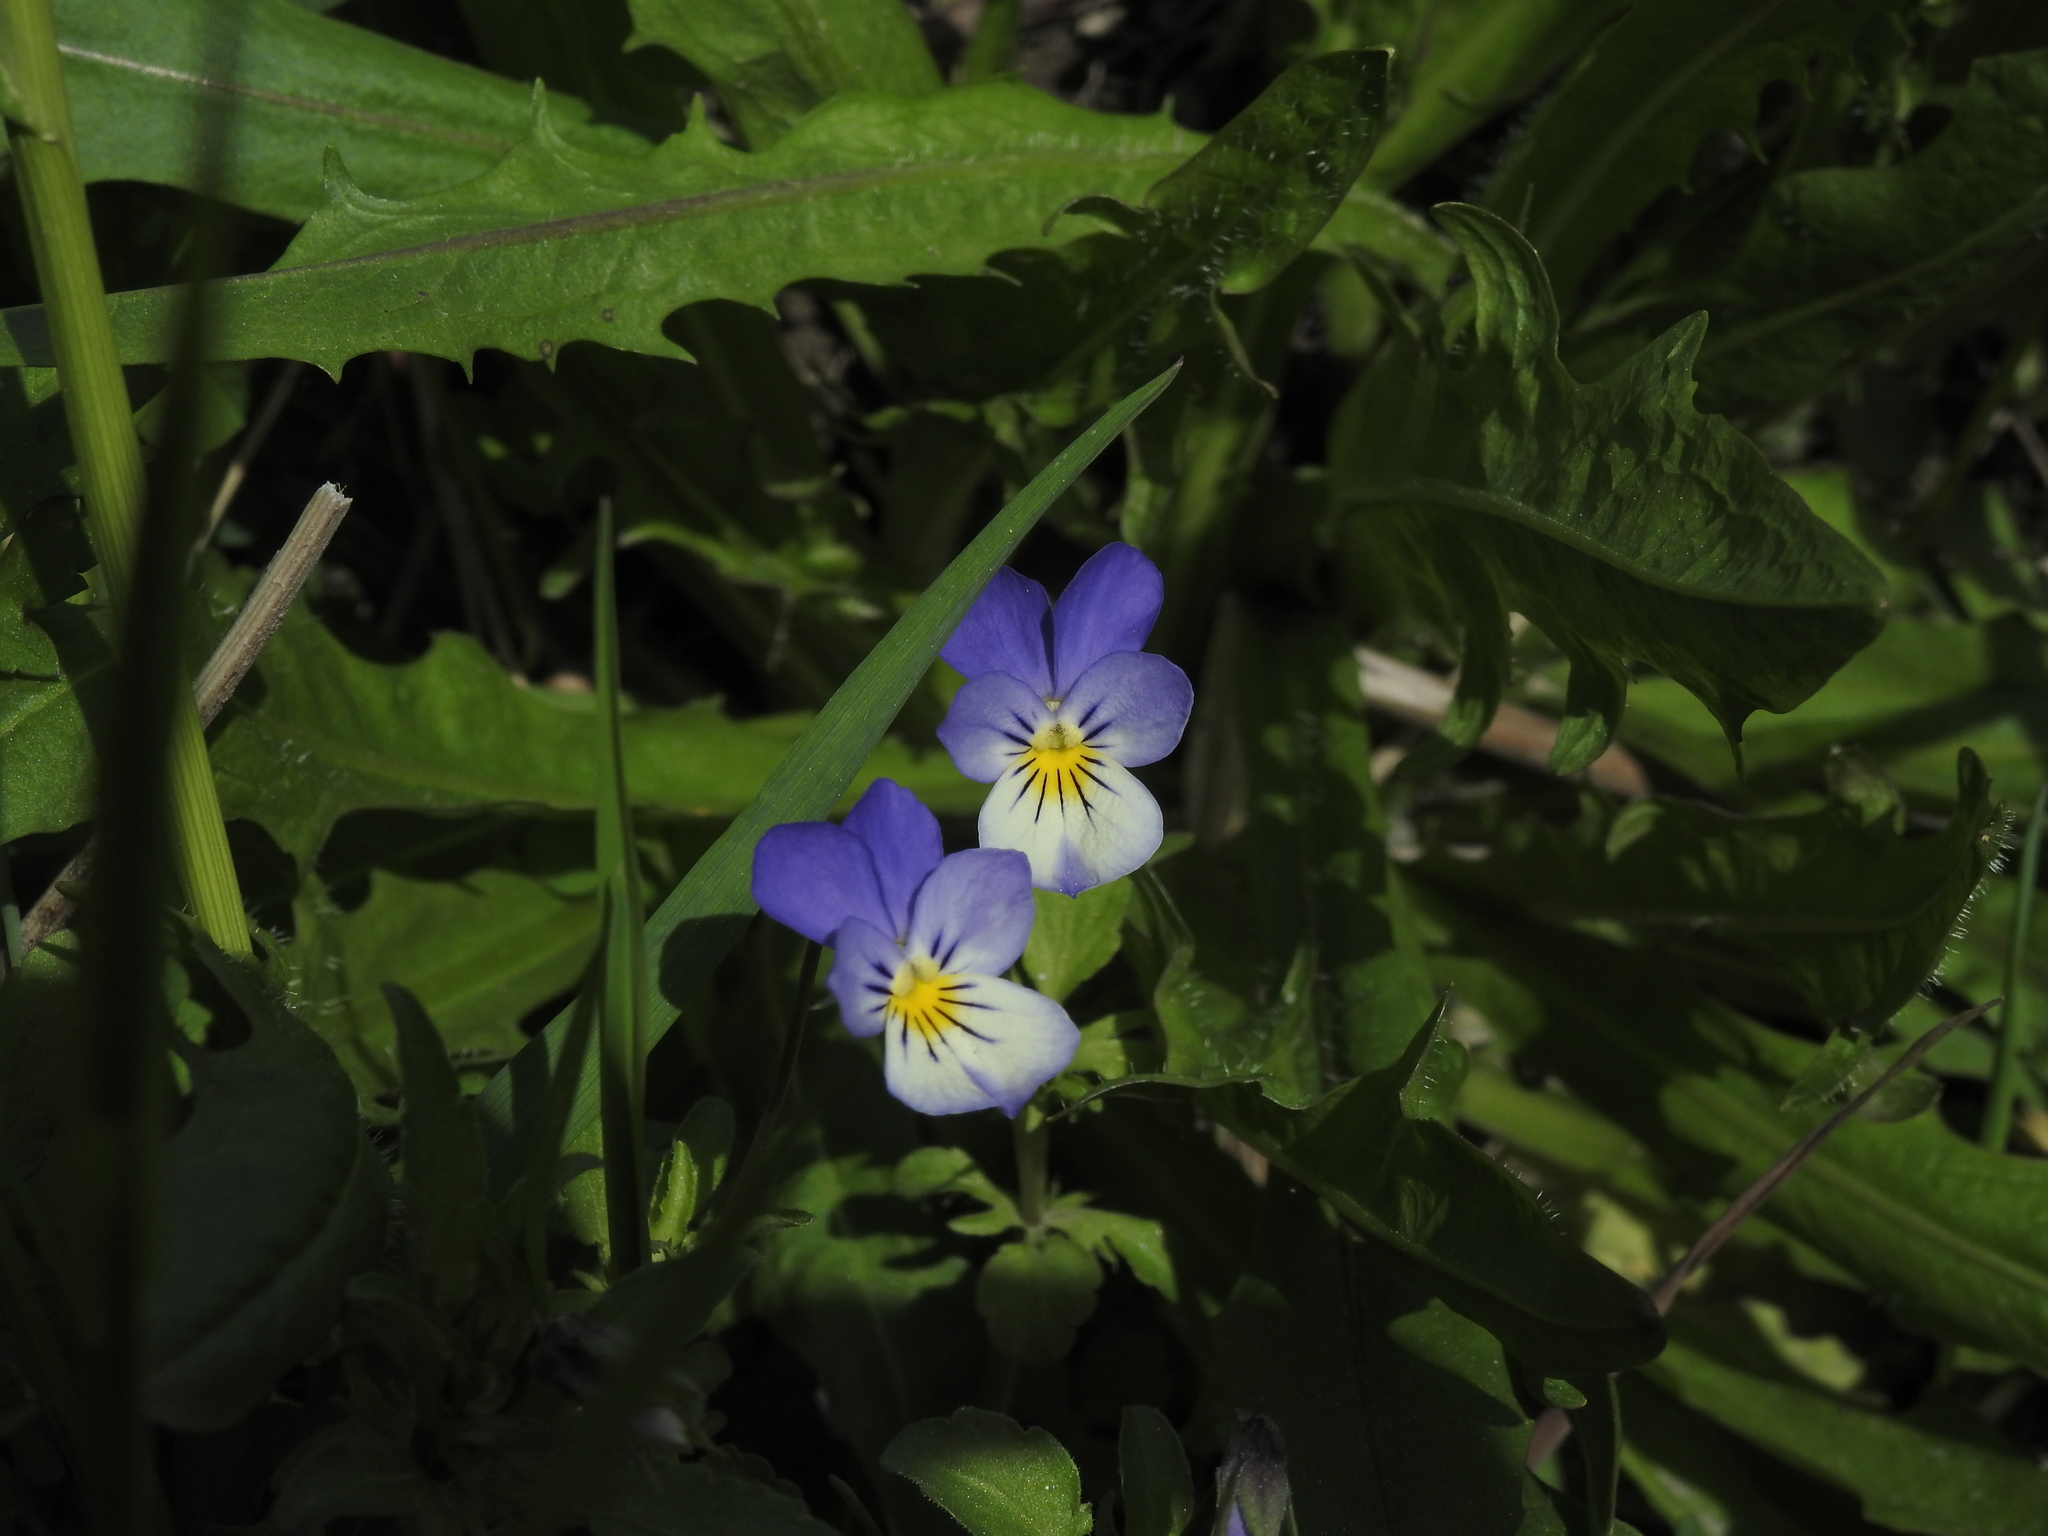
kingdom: Plantae
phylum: Tracheophyta
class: Magnoliopsida
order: Malpighiales
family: Violaceae
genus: Viola
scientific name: Viola tricolor
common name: Pansy
